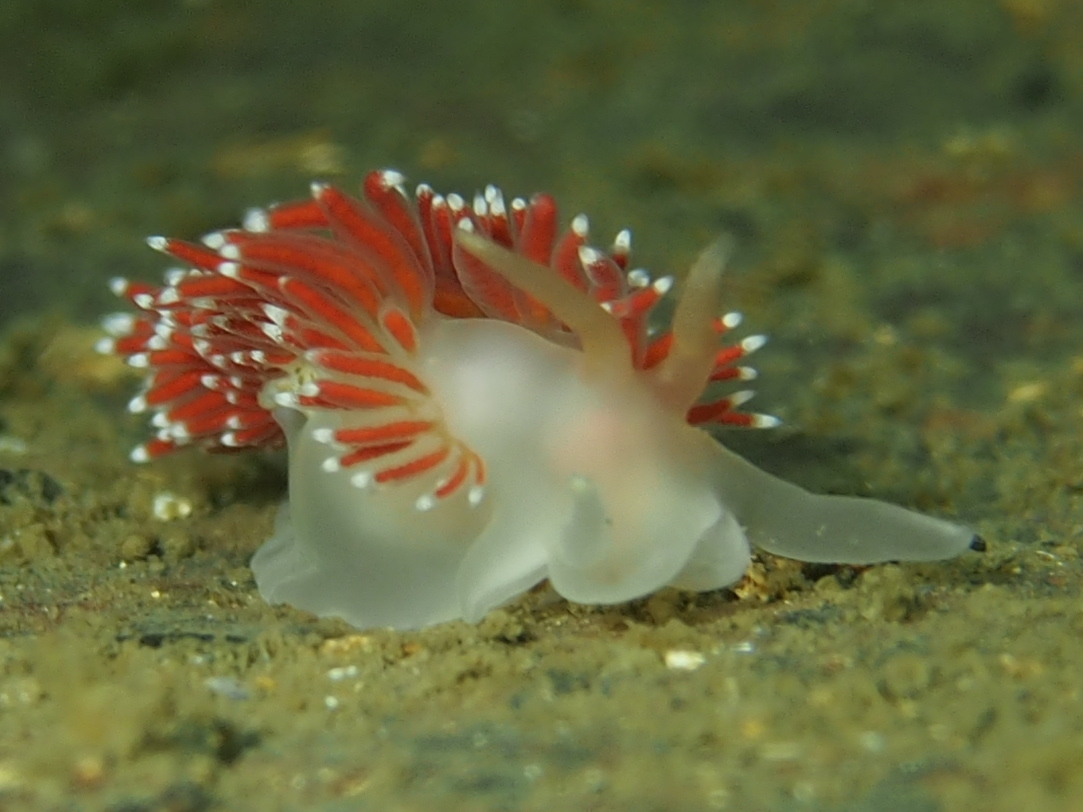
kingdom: Animalia
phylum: Mollusca
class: Gastropoda
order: Nudibranchia
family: Coryphellidae
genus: Coryphella
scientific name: Coryphella verrucosa
